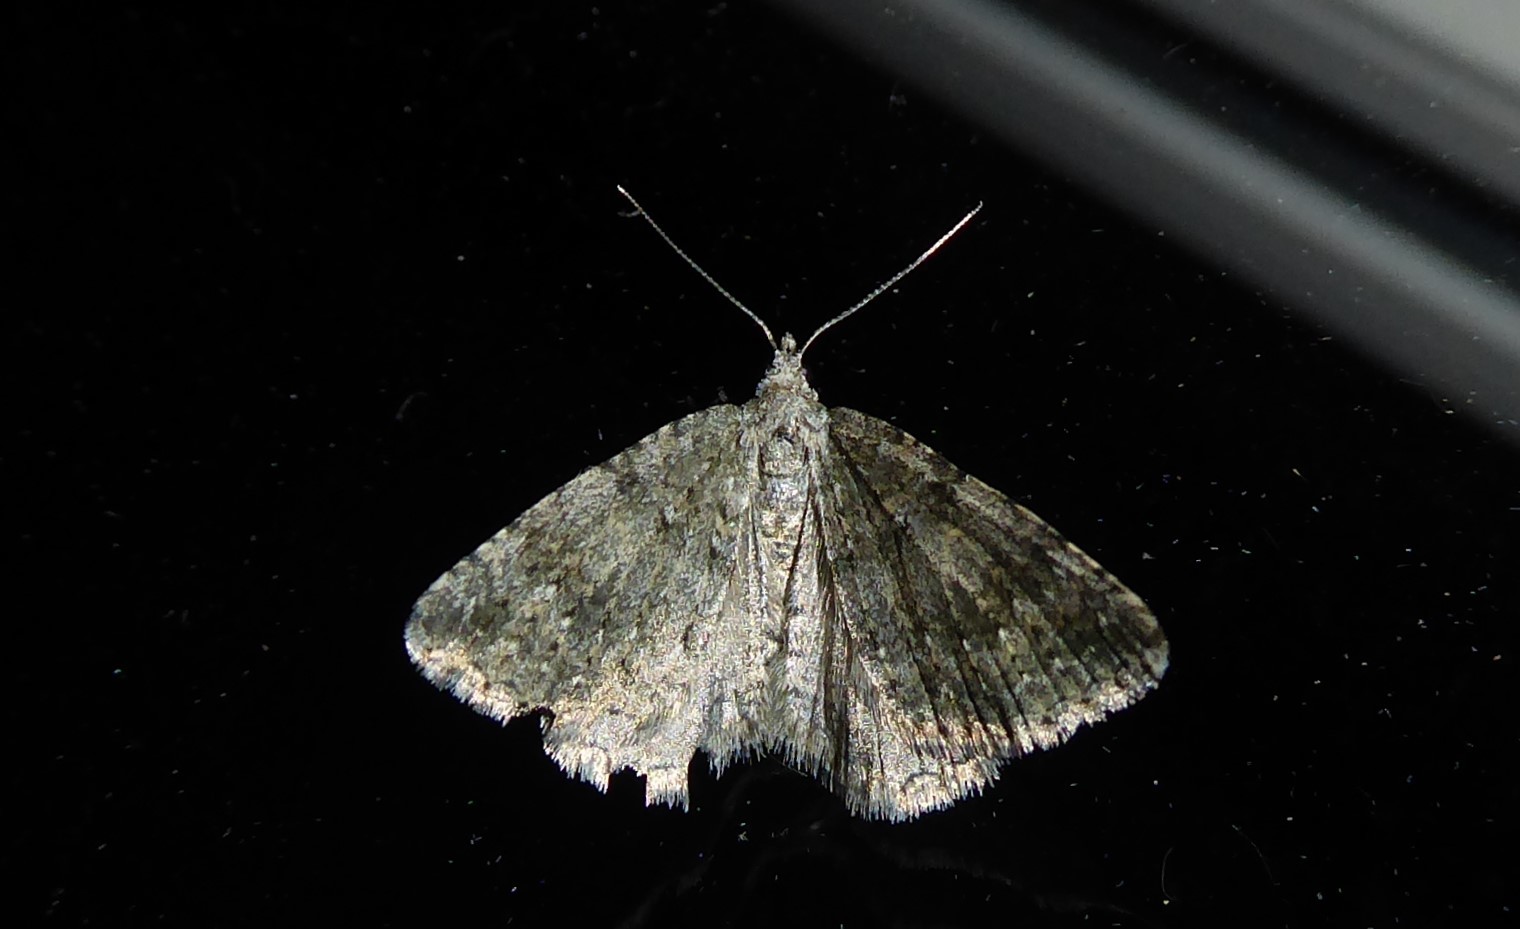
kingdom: Animalia
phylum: Arthropoda
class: Insecta
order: Lepidoptera
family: Geometridae
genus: Helastia
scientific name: Helastia corcularia
